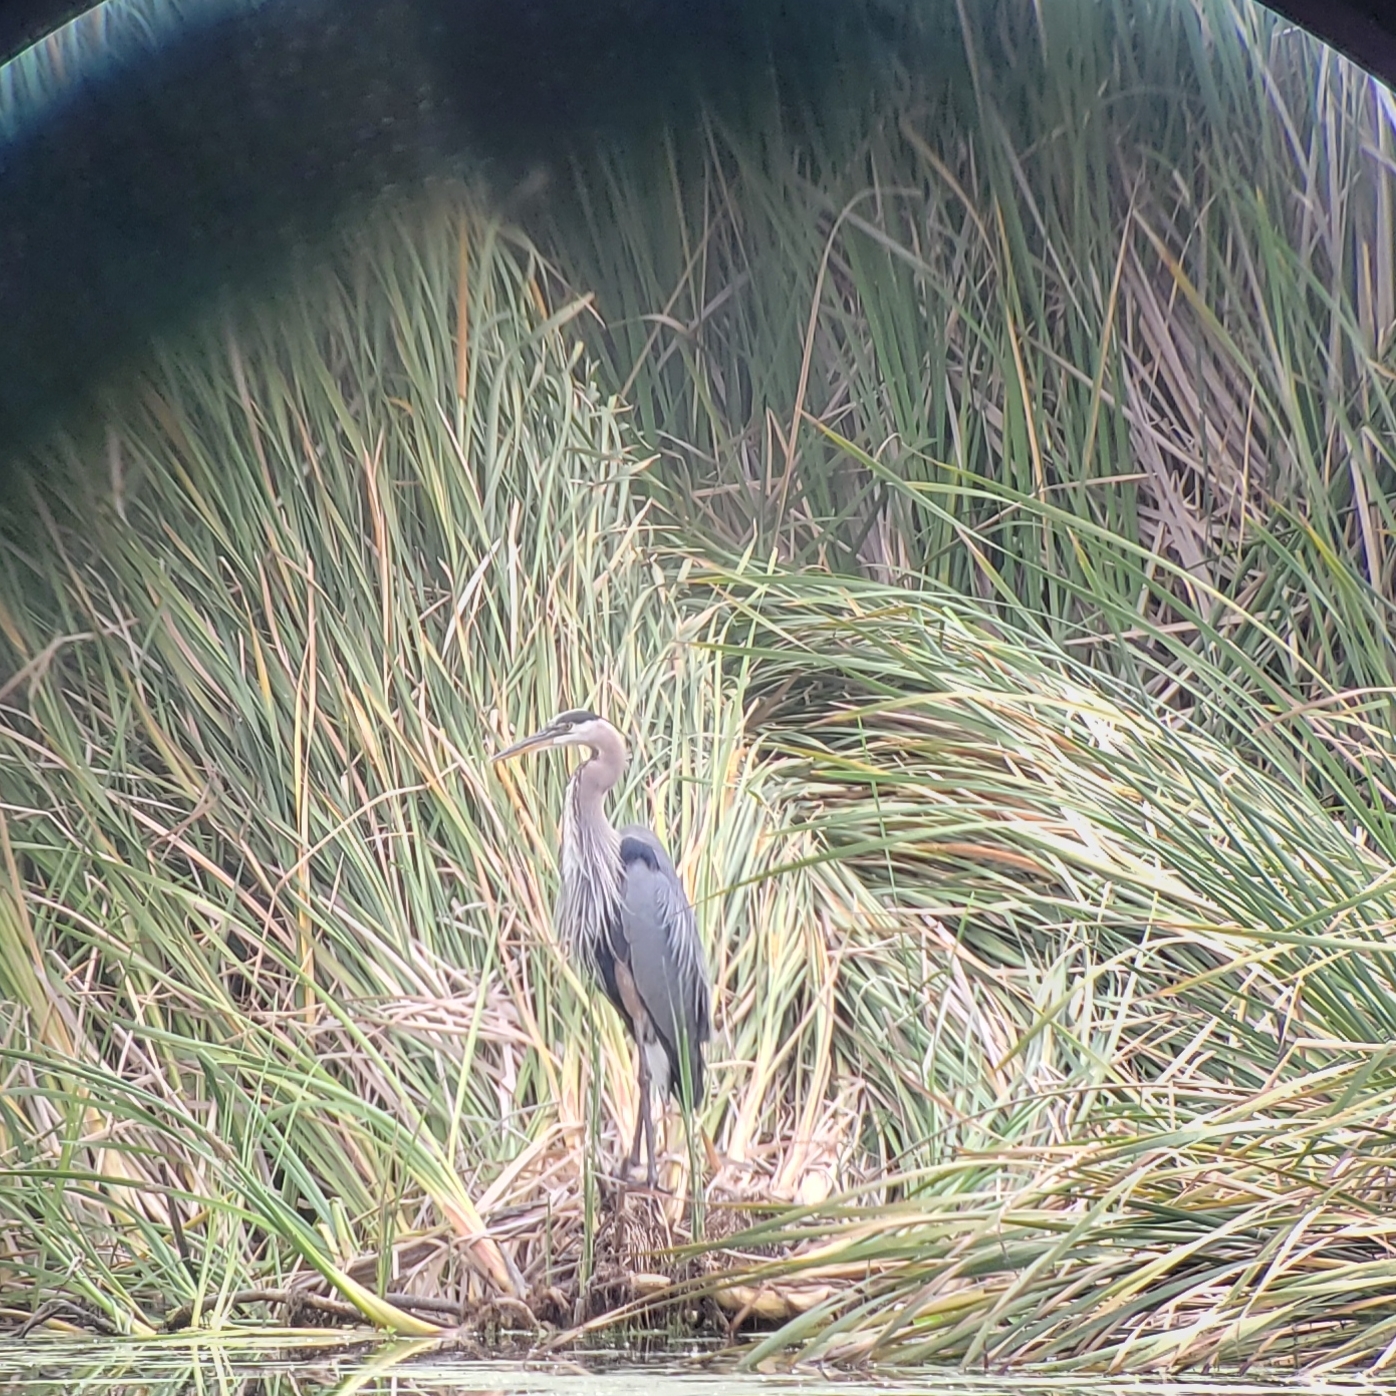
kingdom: Animalia
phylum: Chordata
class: Aves
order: Pelecaniformes
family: Ardeidae
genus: Ardea
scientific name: Ardea herodias
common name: Great blue heron
